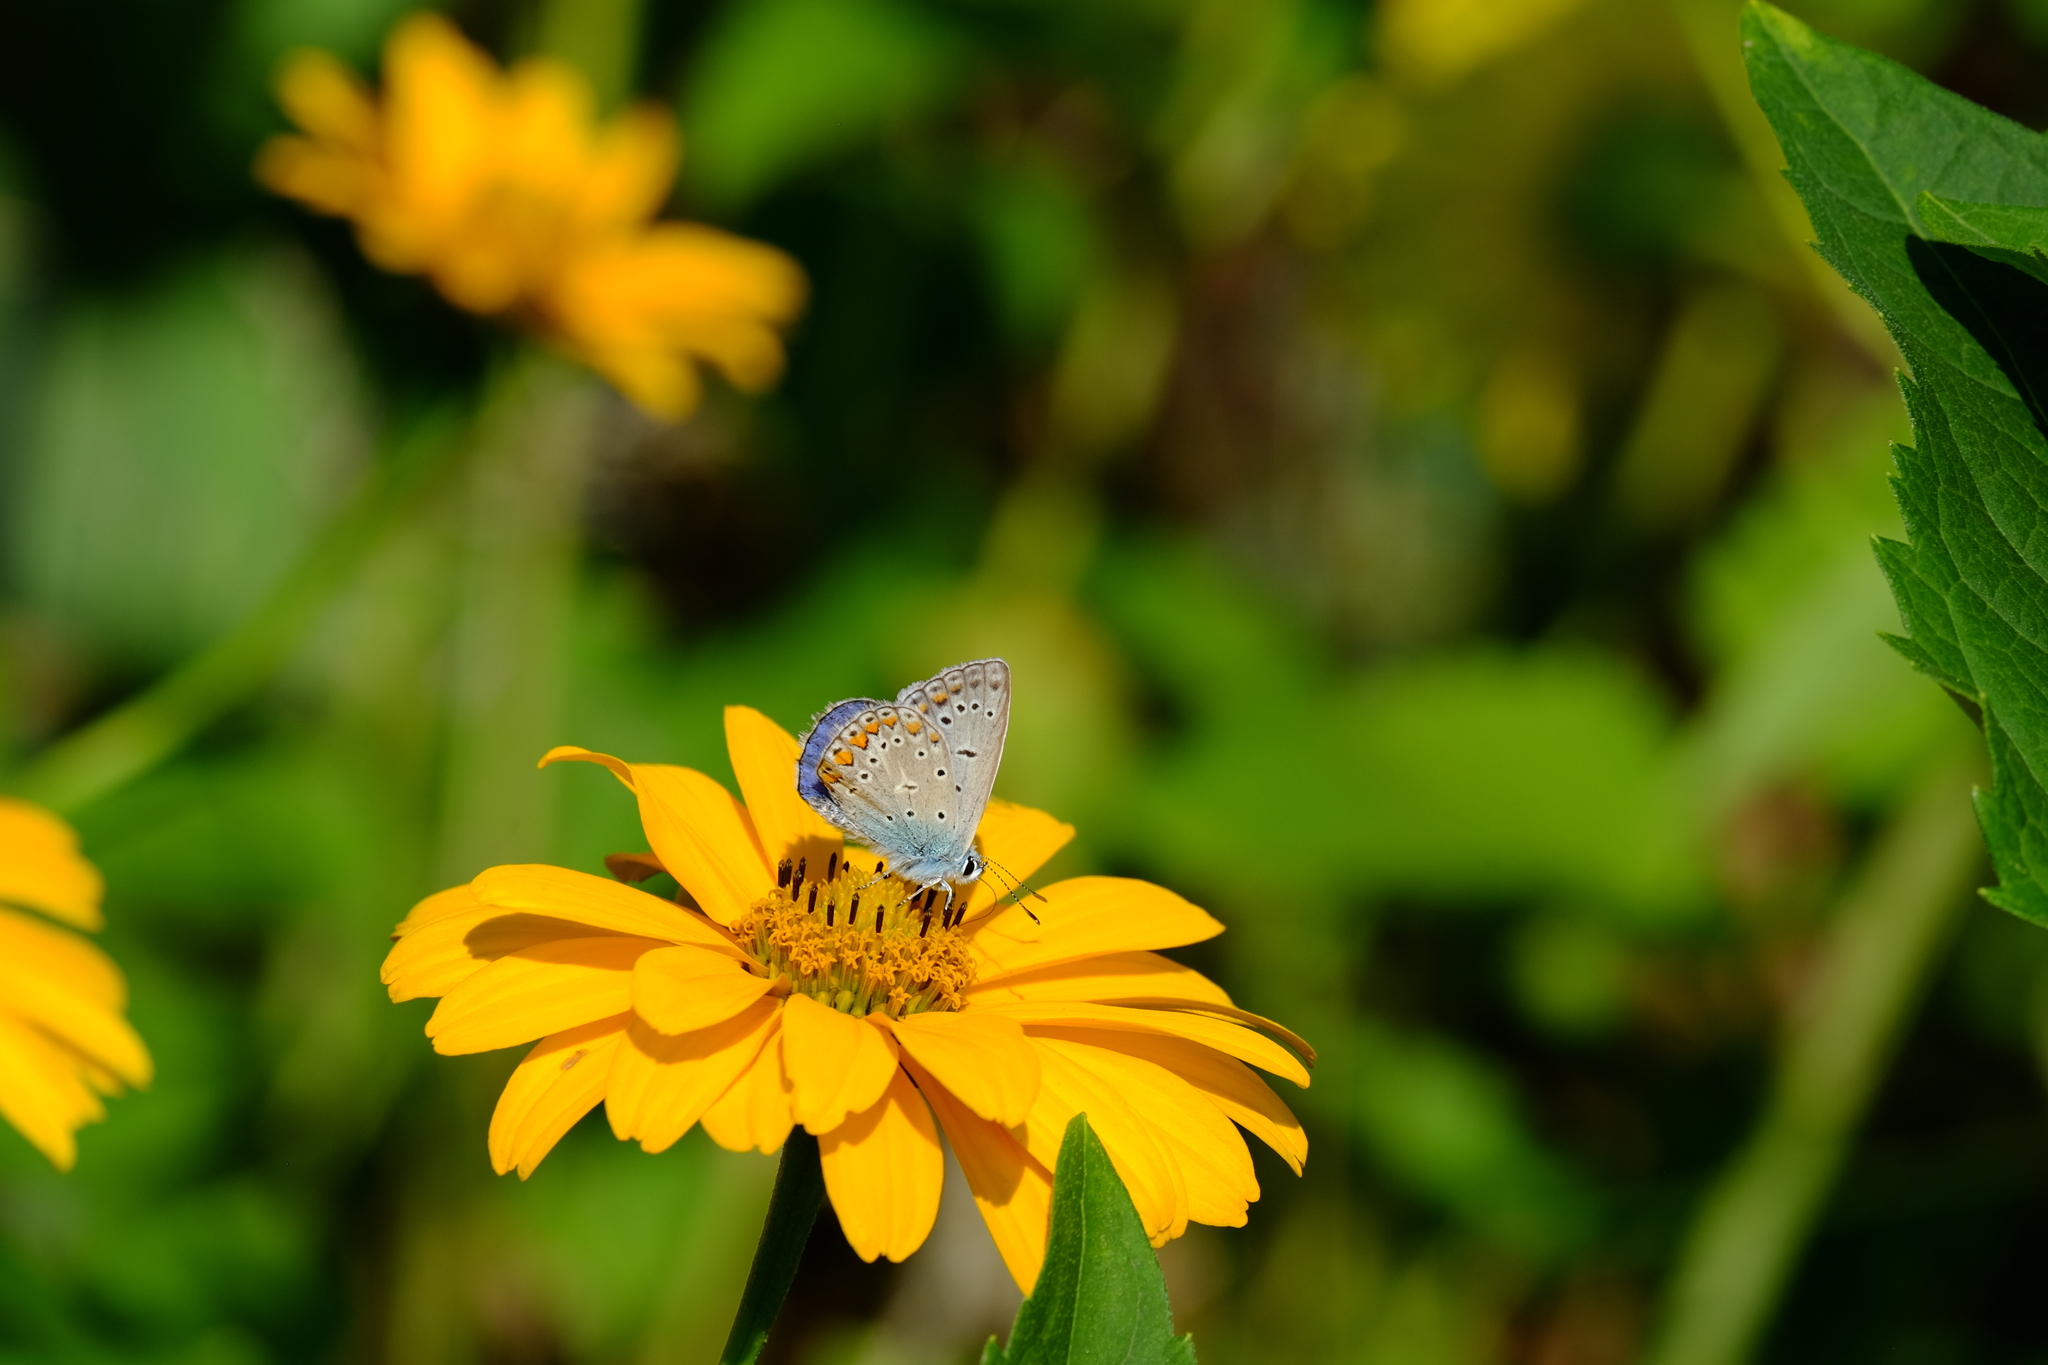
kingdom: Animalia
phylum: Arthropoda
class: Insecta
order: Lepidoptera
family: Lycaenidae
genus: Polyommatus
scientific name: Polyommatus icarus
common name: Common blue
